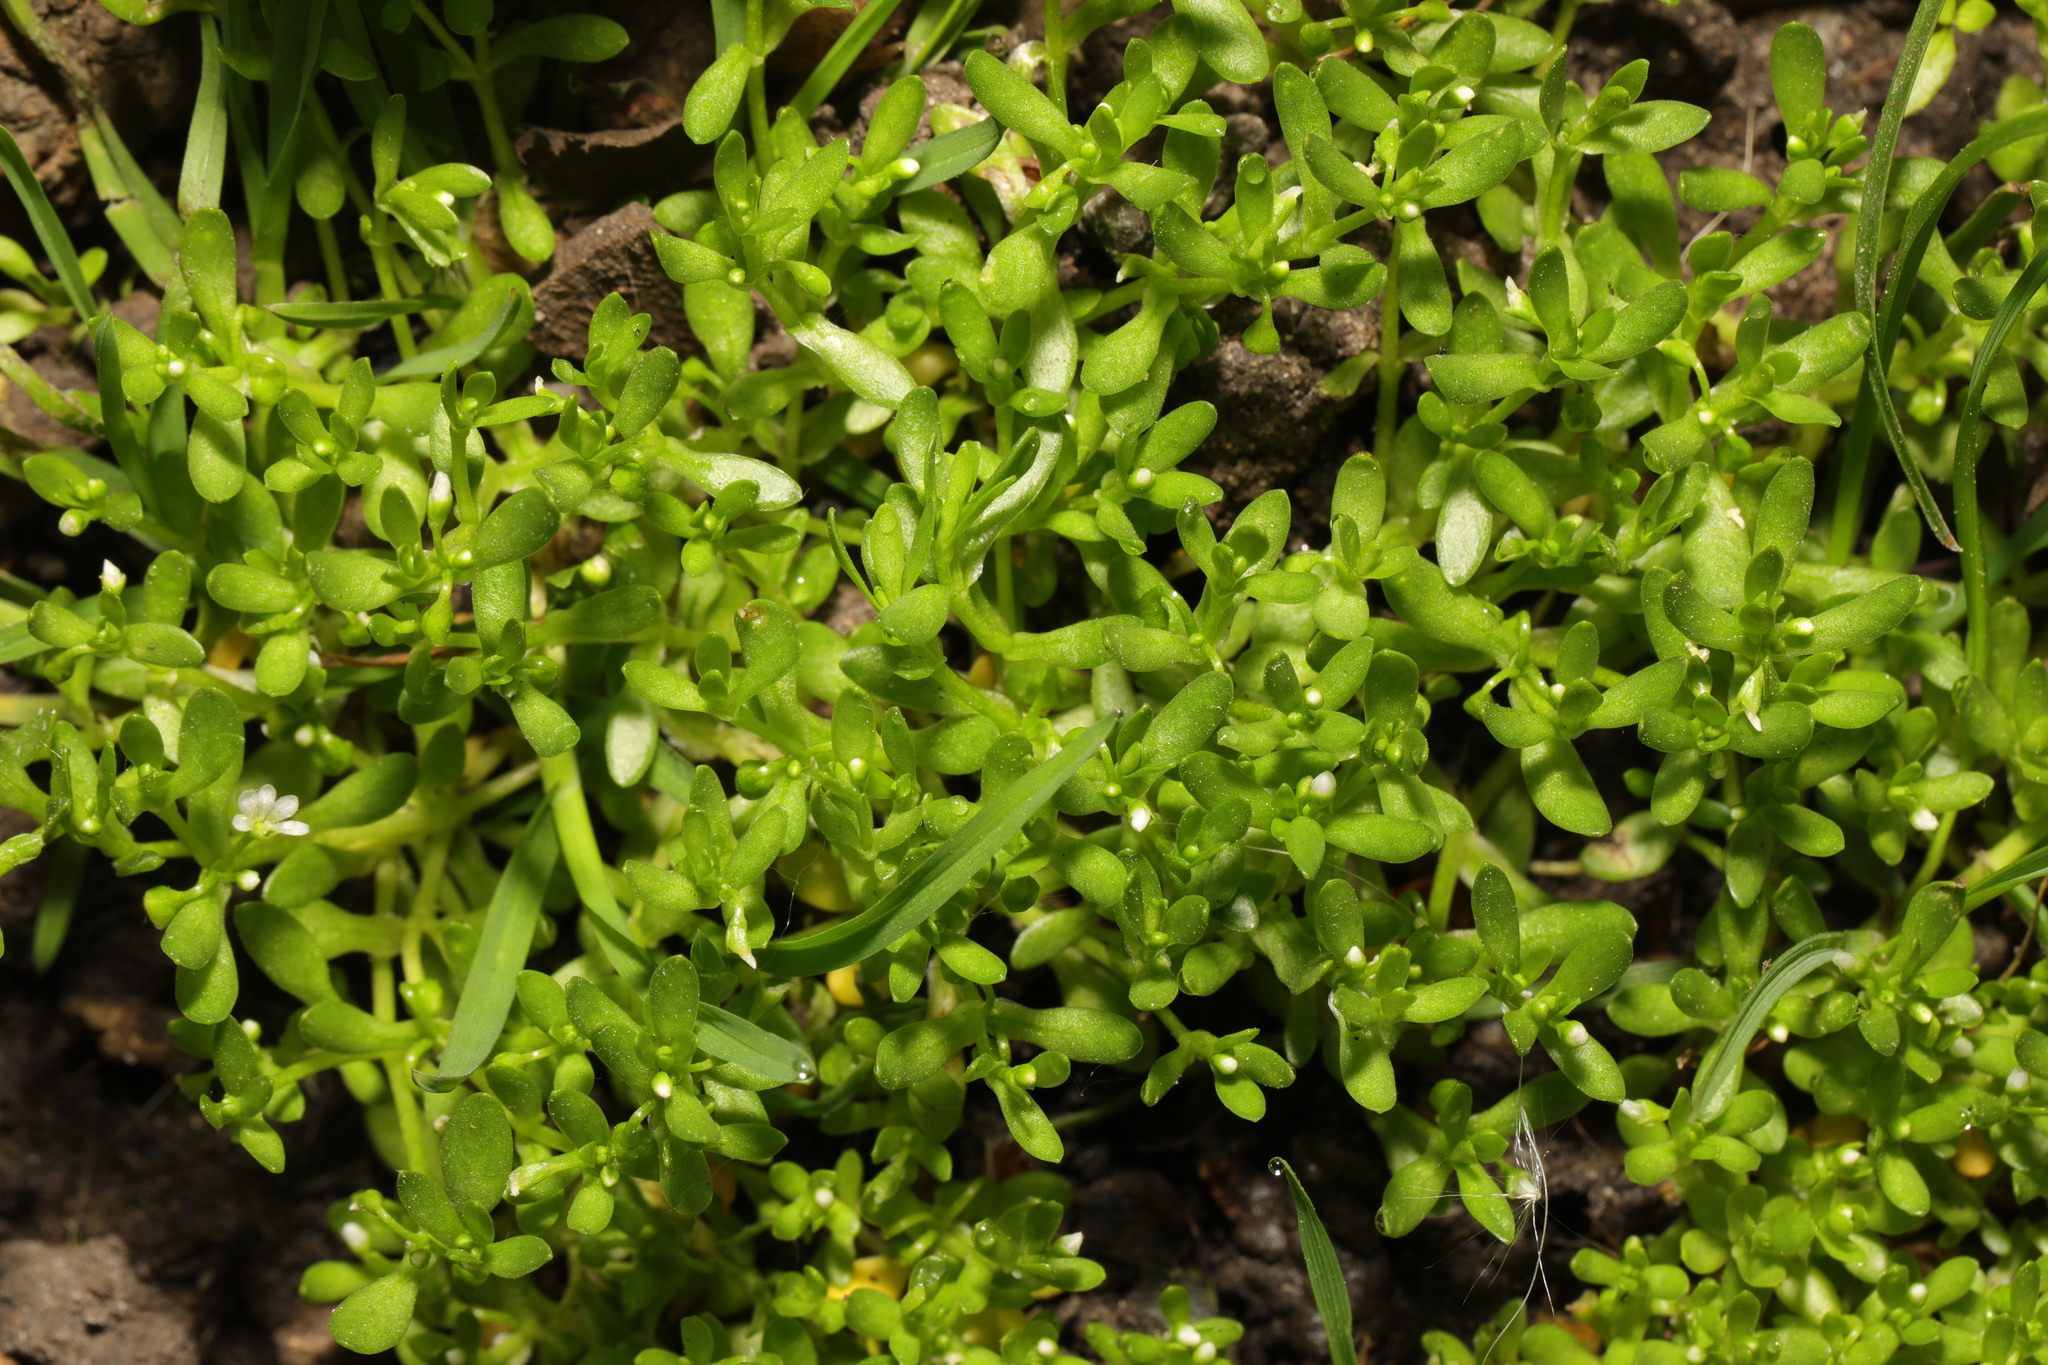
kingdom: Plantae
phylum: Tracheophyta
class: Magnoliopsida
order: Caryophyllales
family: Montiaceae
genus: Montia
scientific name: Montia fontana
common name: Blinks
